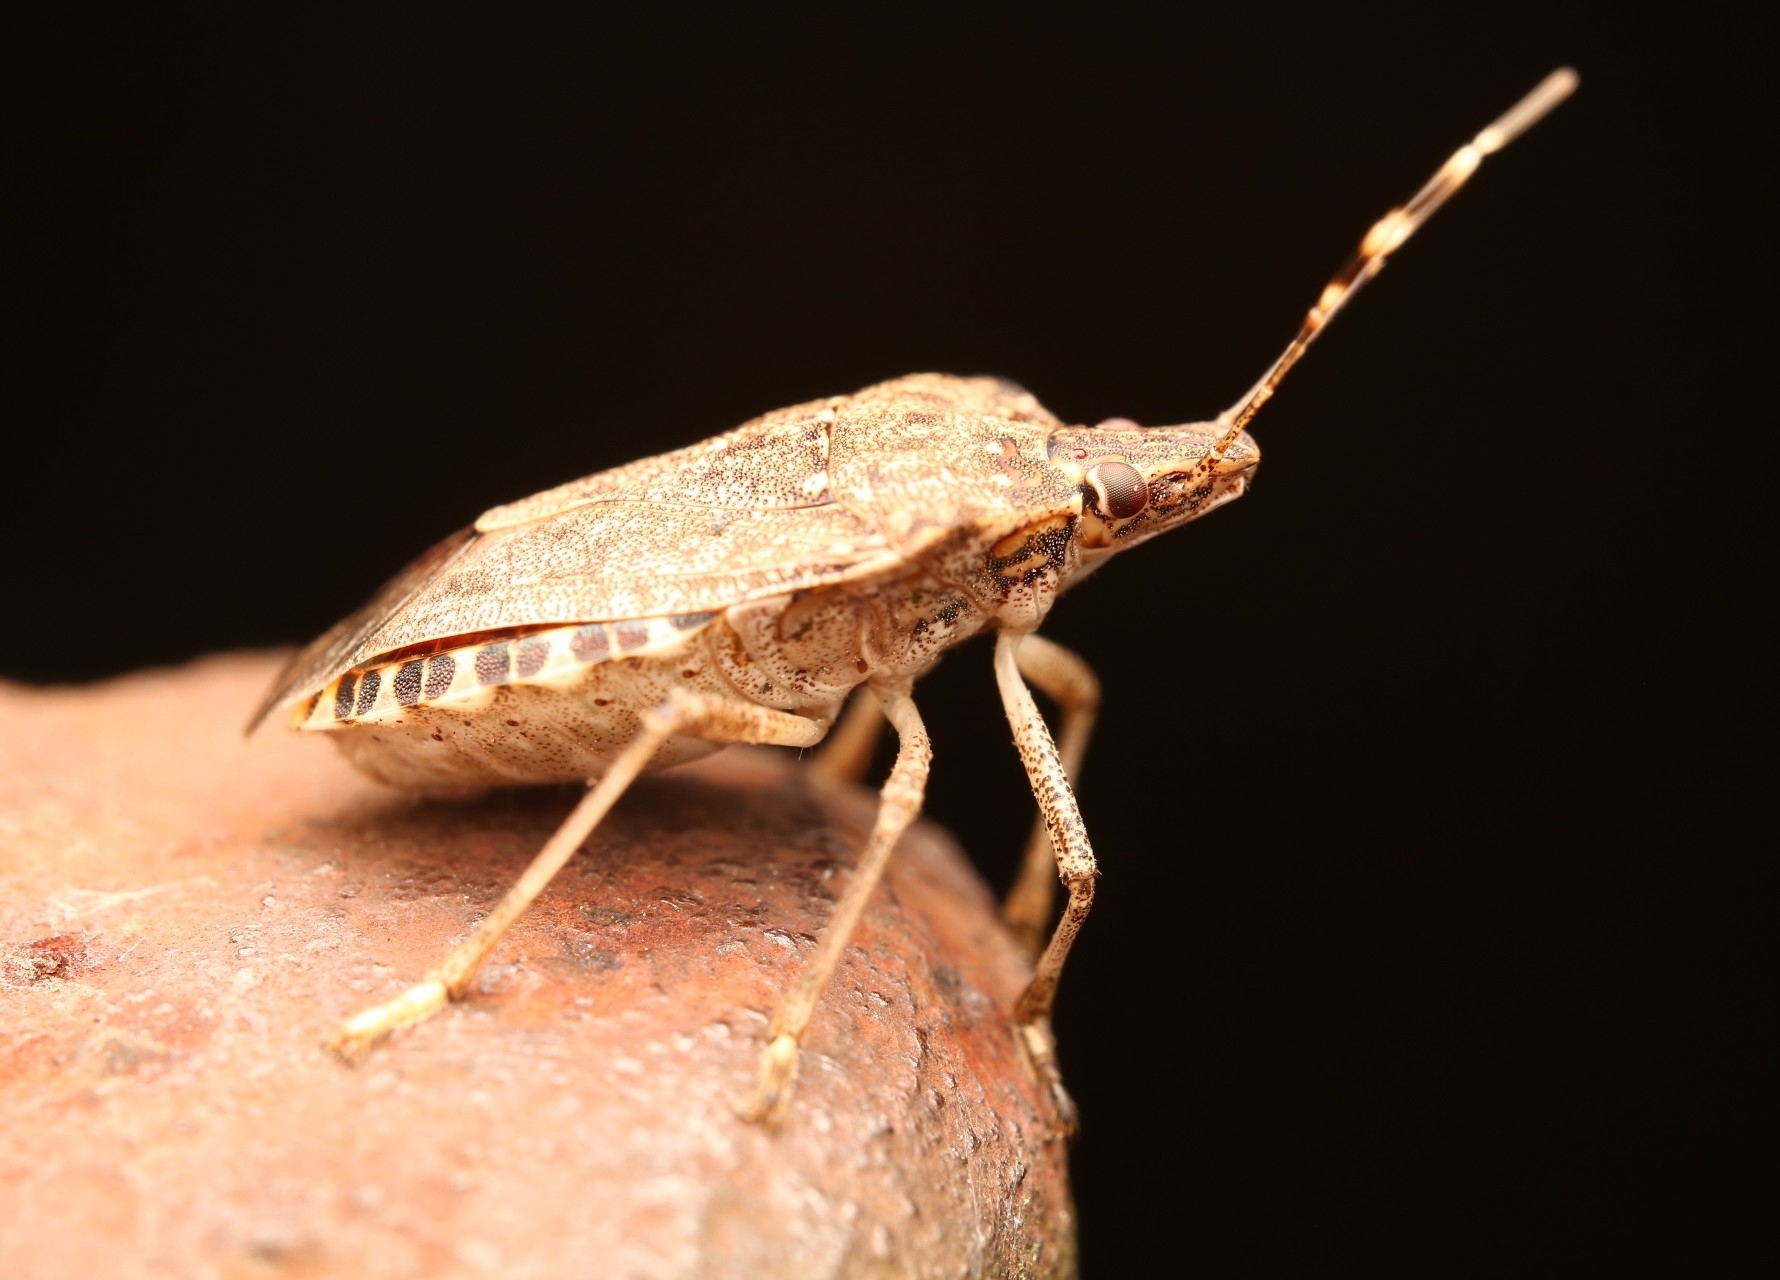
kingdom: Animalia
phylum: Arthropoda
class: Insecta
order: Hemiptera
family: Pentatomidae
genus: Halyomorpha
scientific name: Halyomorpha halys
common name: Brown marmorated stink bug
